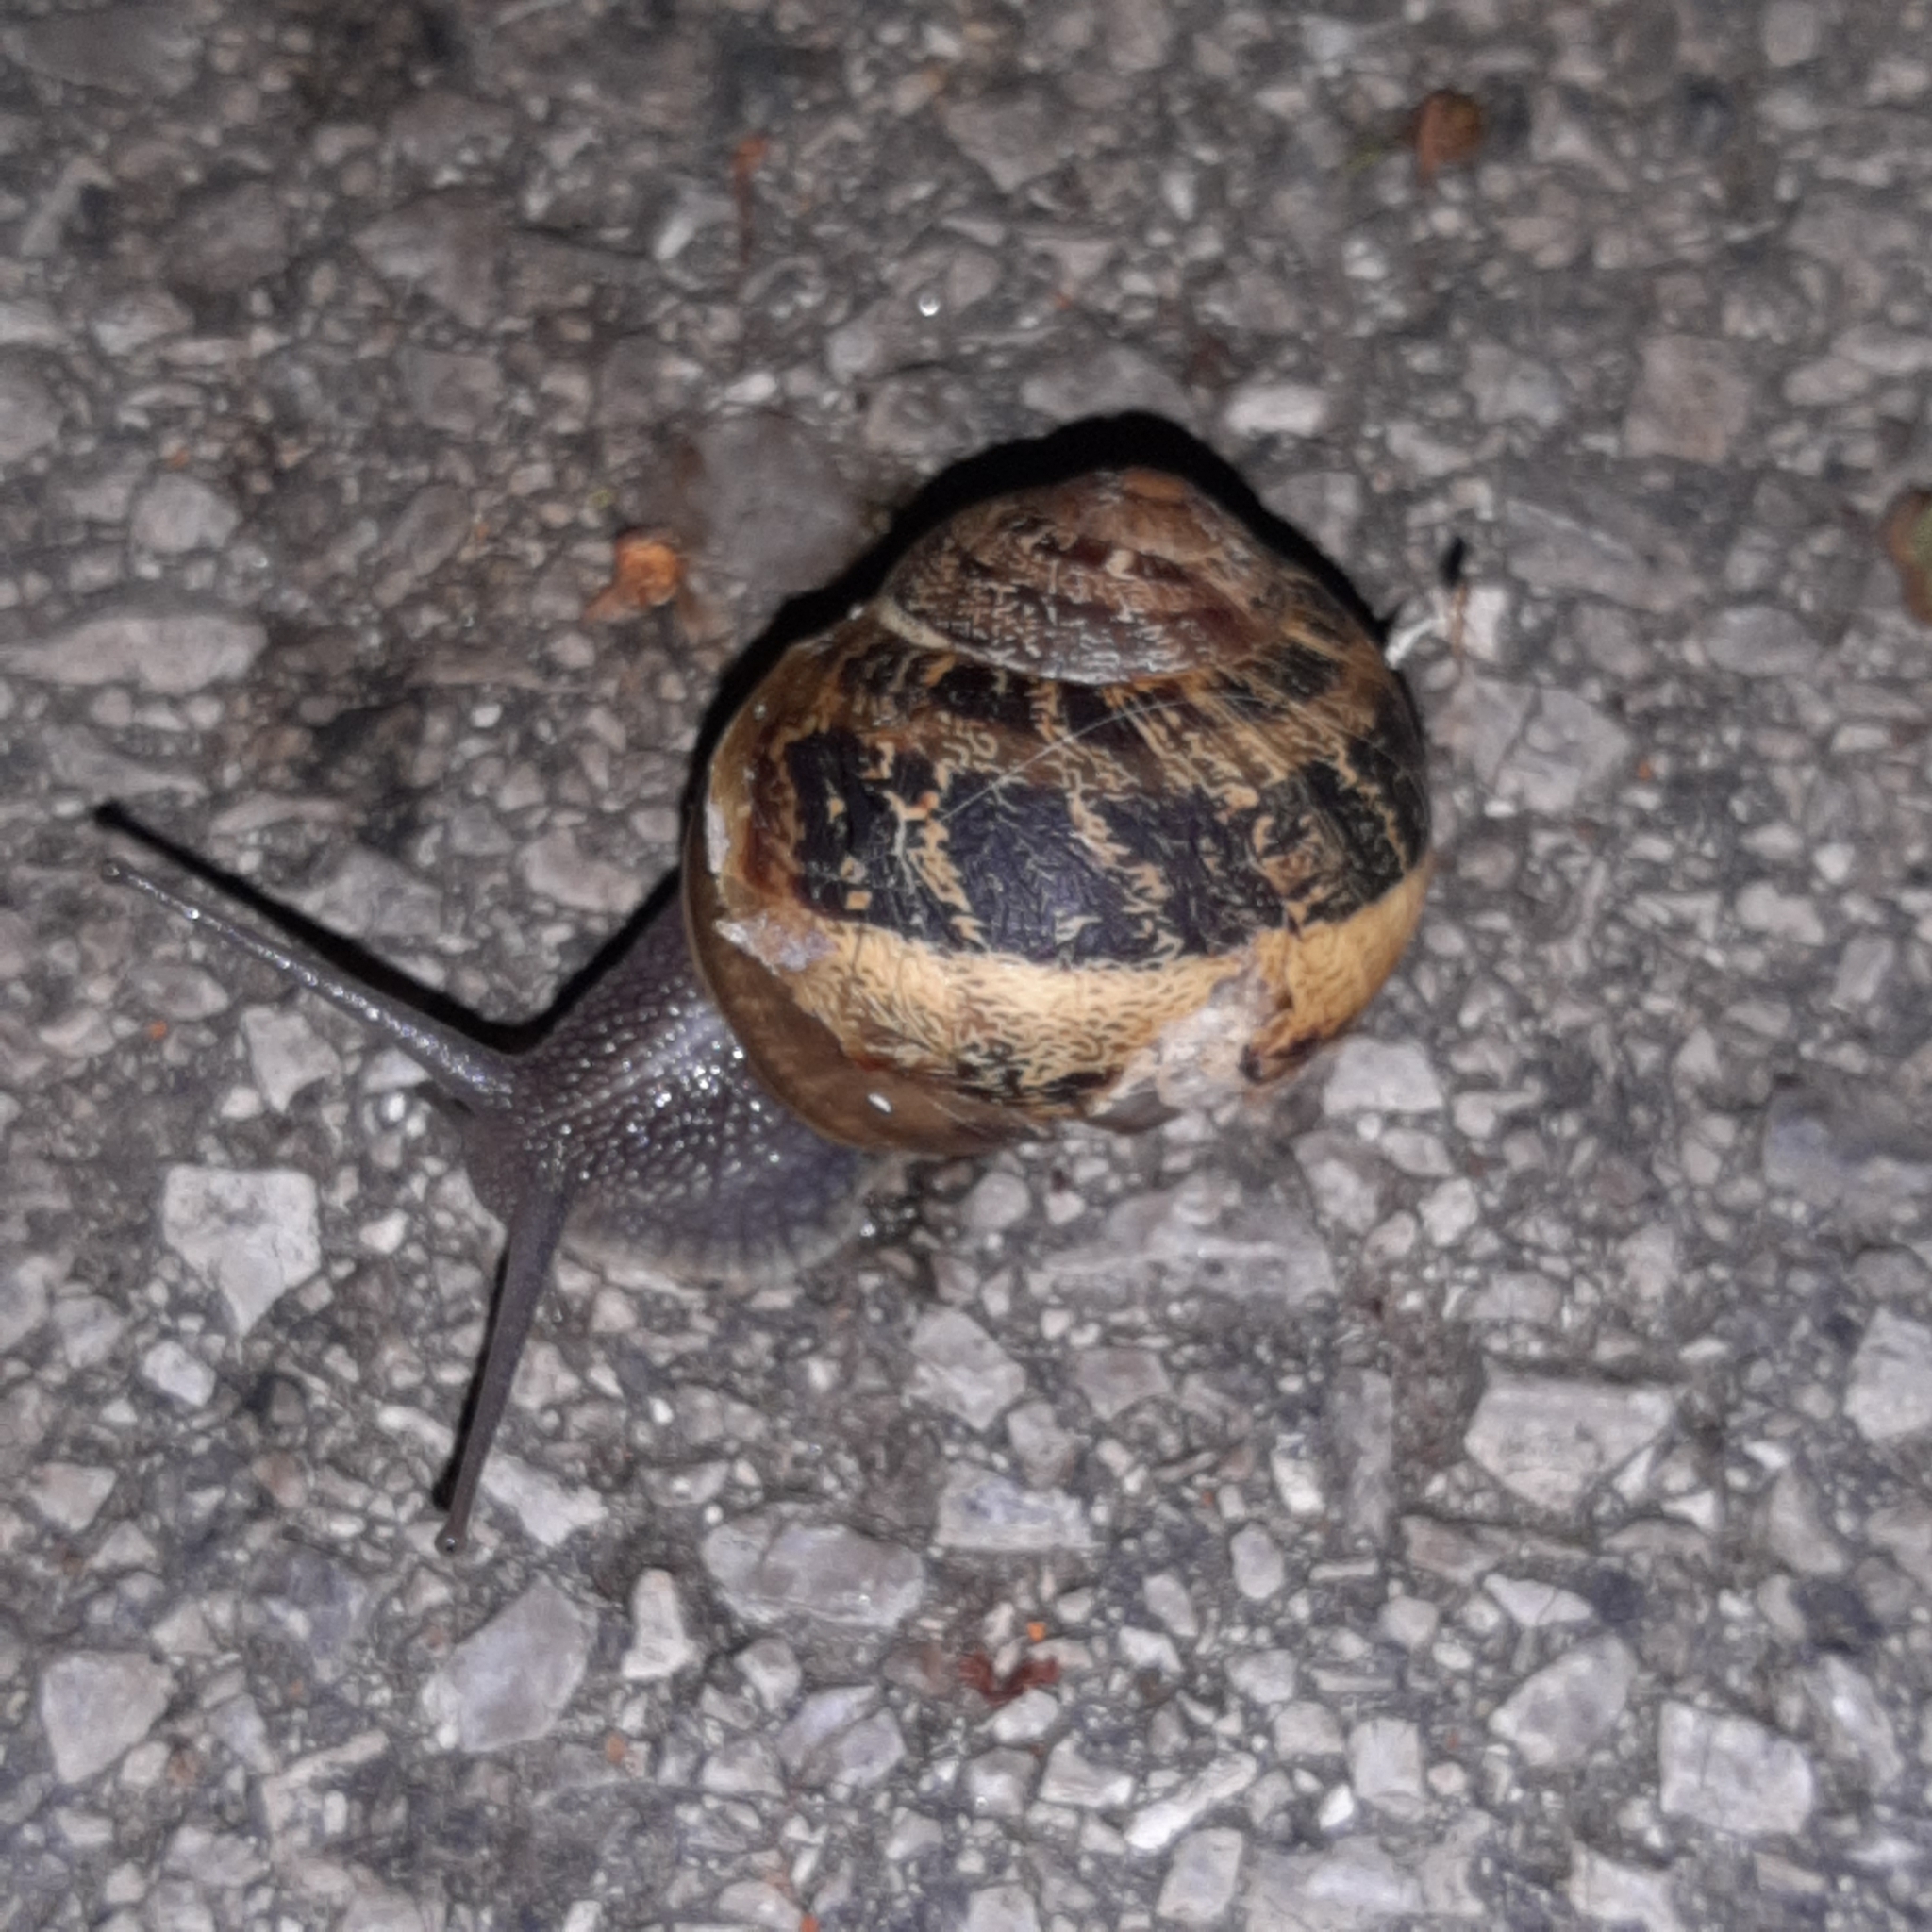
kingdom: Animalia
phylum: Mollusca
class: Gastropoda
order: Stylommatophora
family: Helicidae
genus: Cornu
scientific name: Cornu aspersum
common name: Brown garden snail
